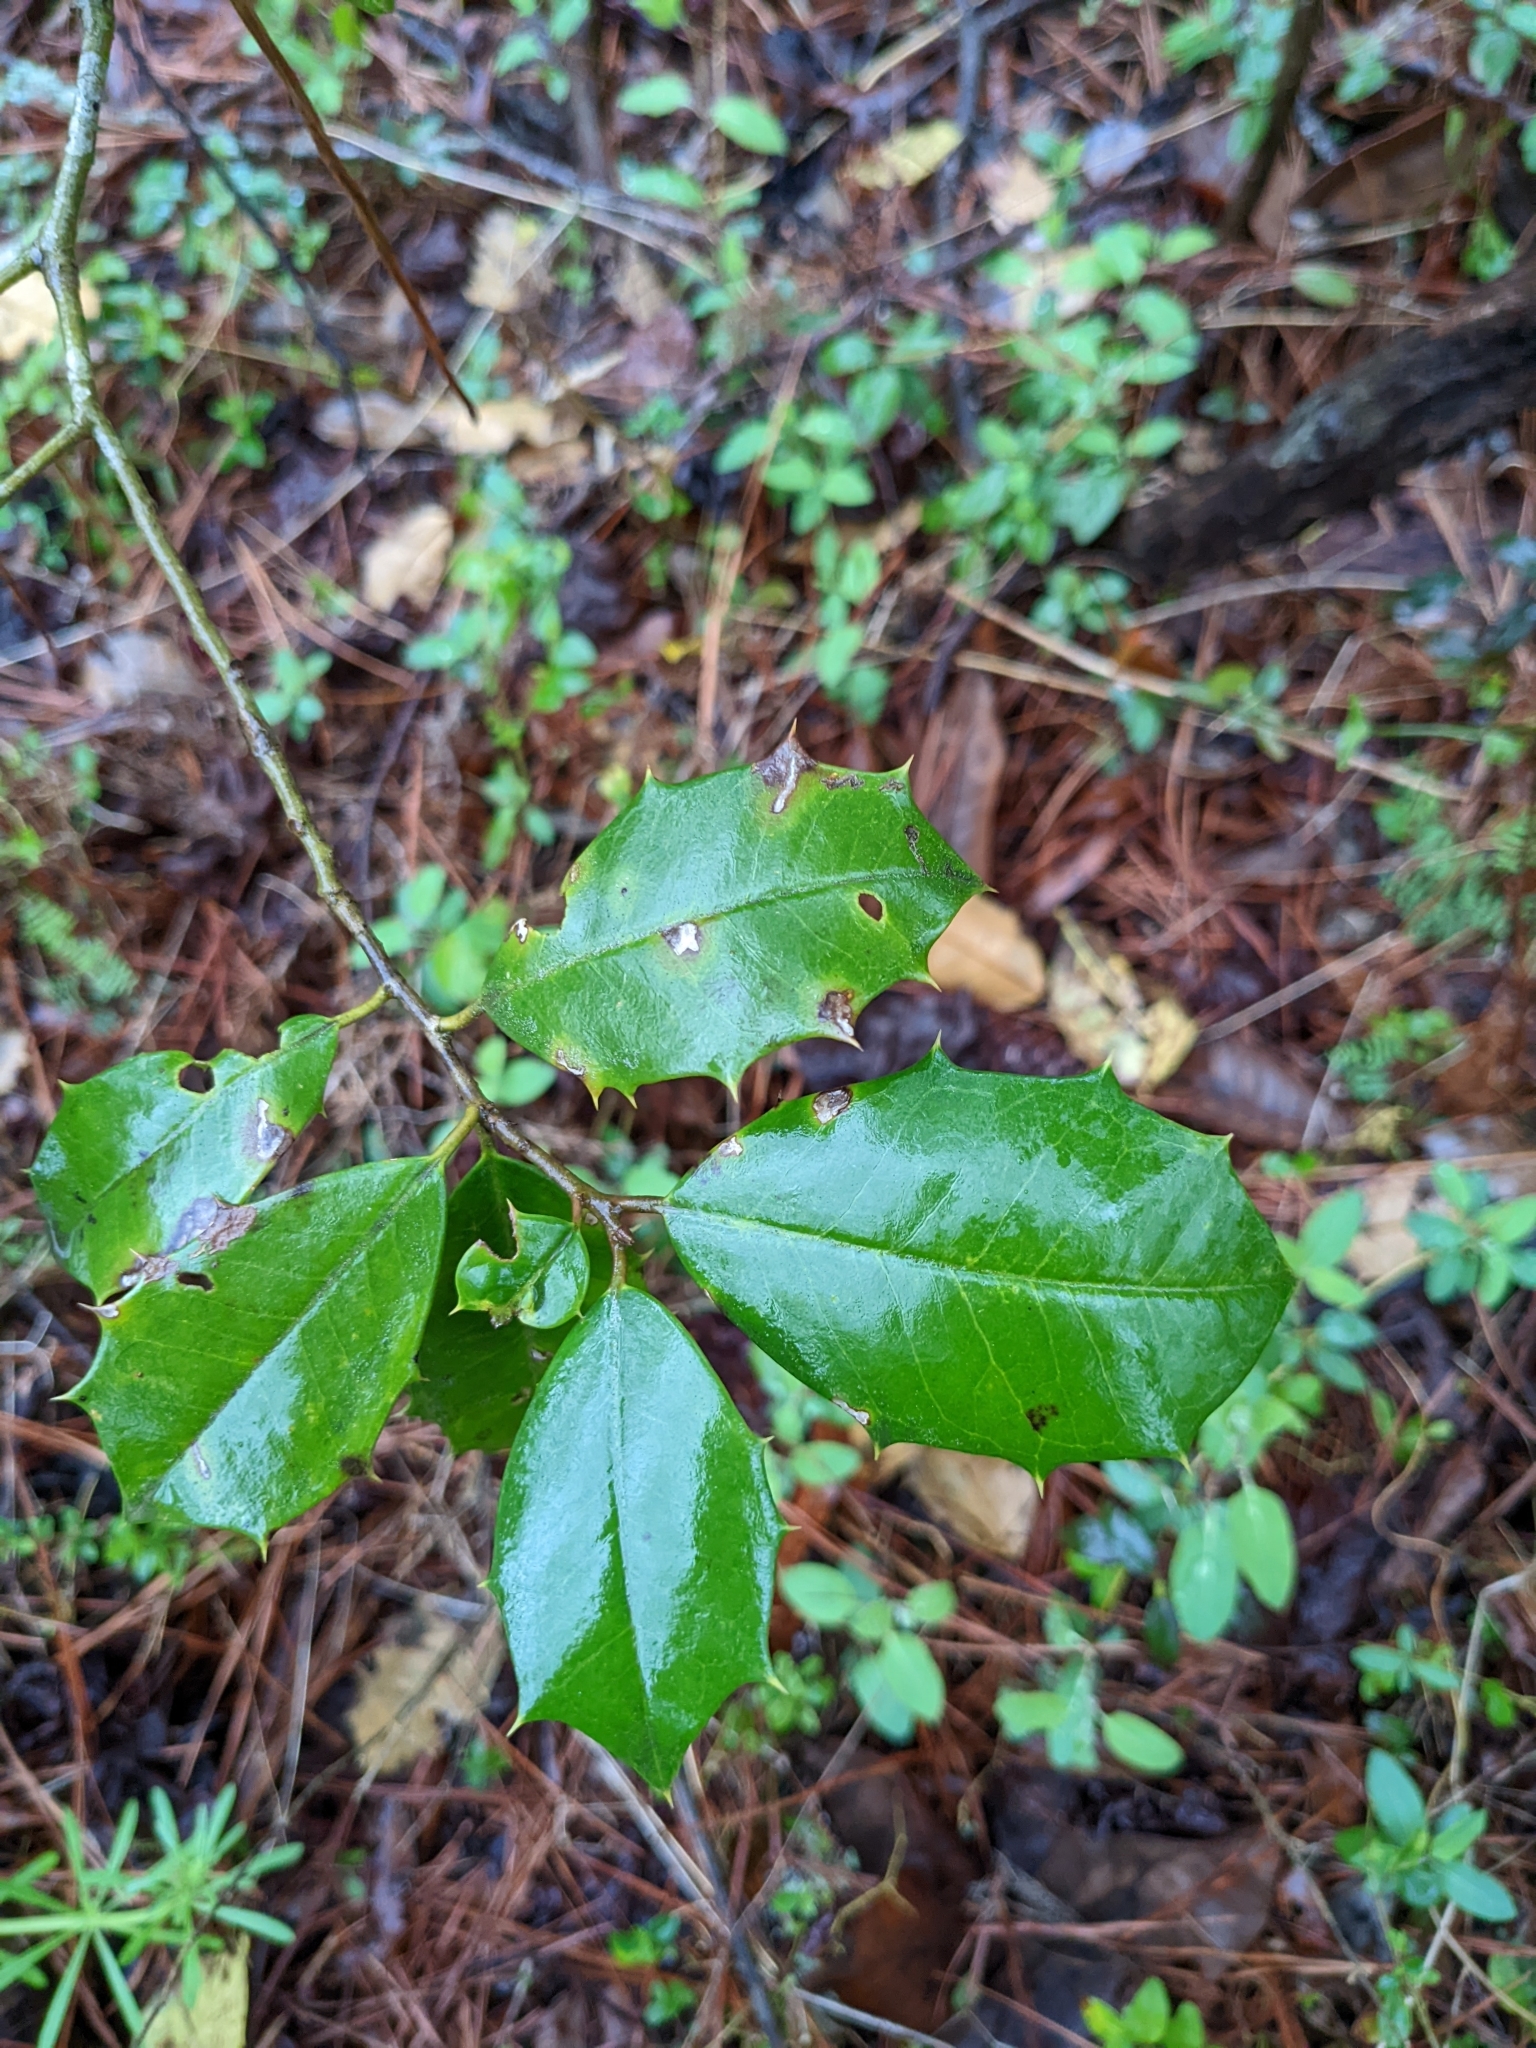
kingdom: Plantae
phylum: Tracheophyta
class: Magnoliopsida
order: Aquifoliales
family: Aquifoliaceae
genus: Ilex
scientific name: Ilex opaca
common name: American holly
